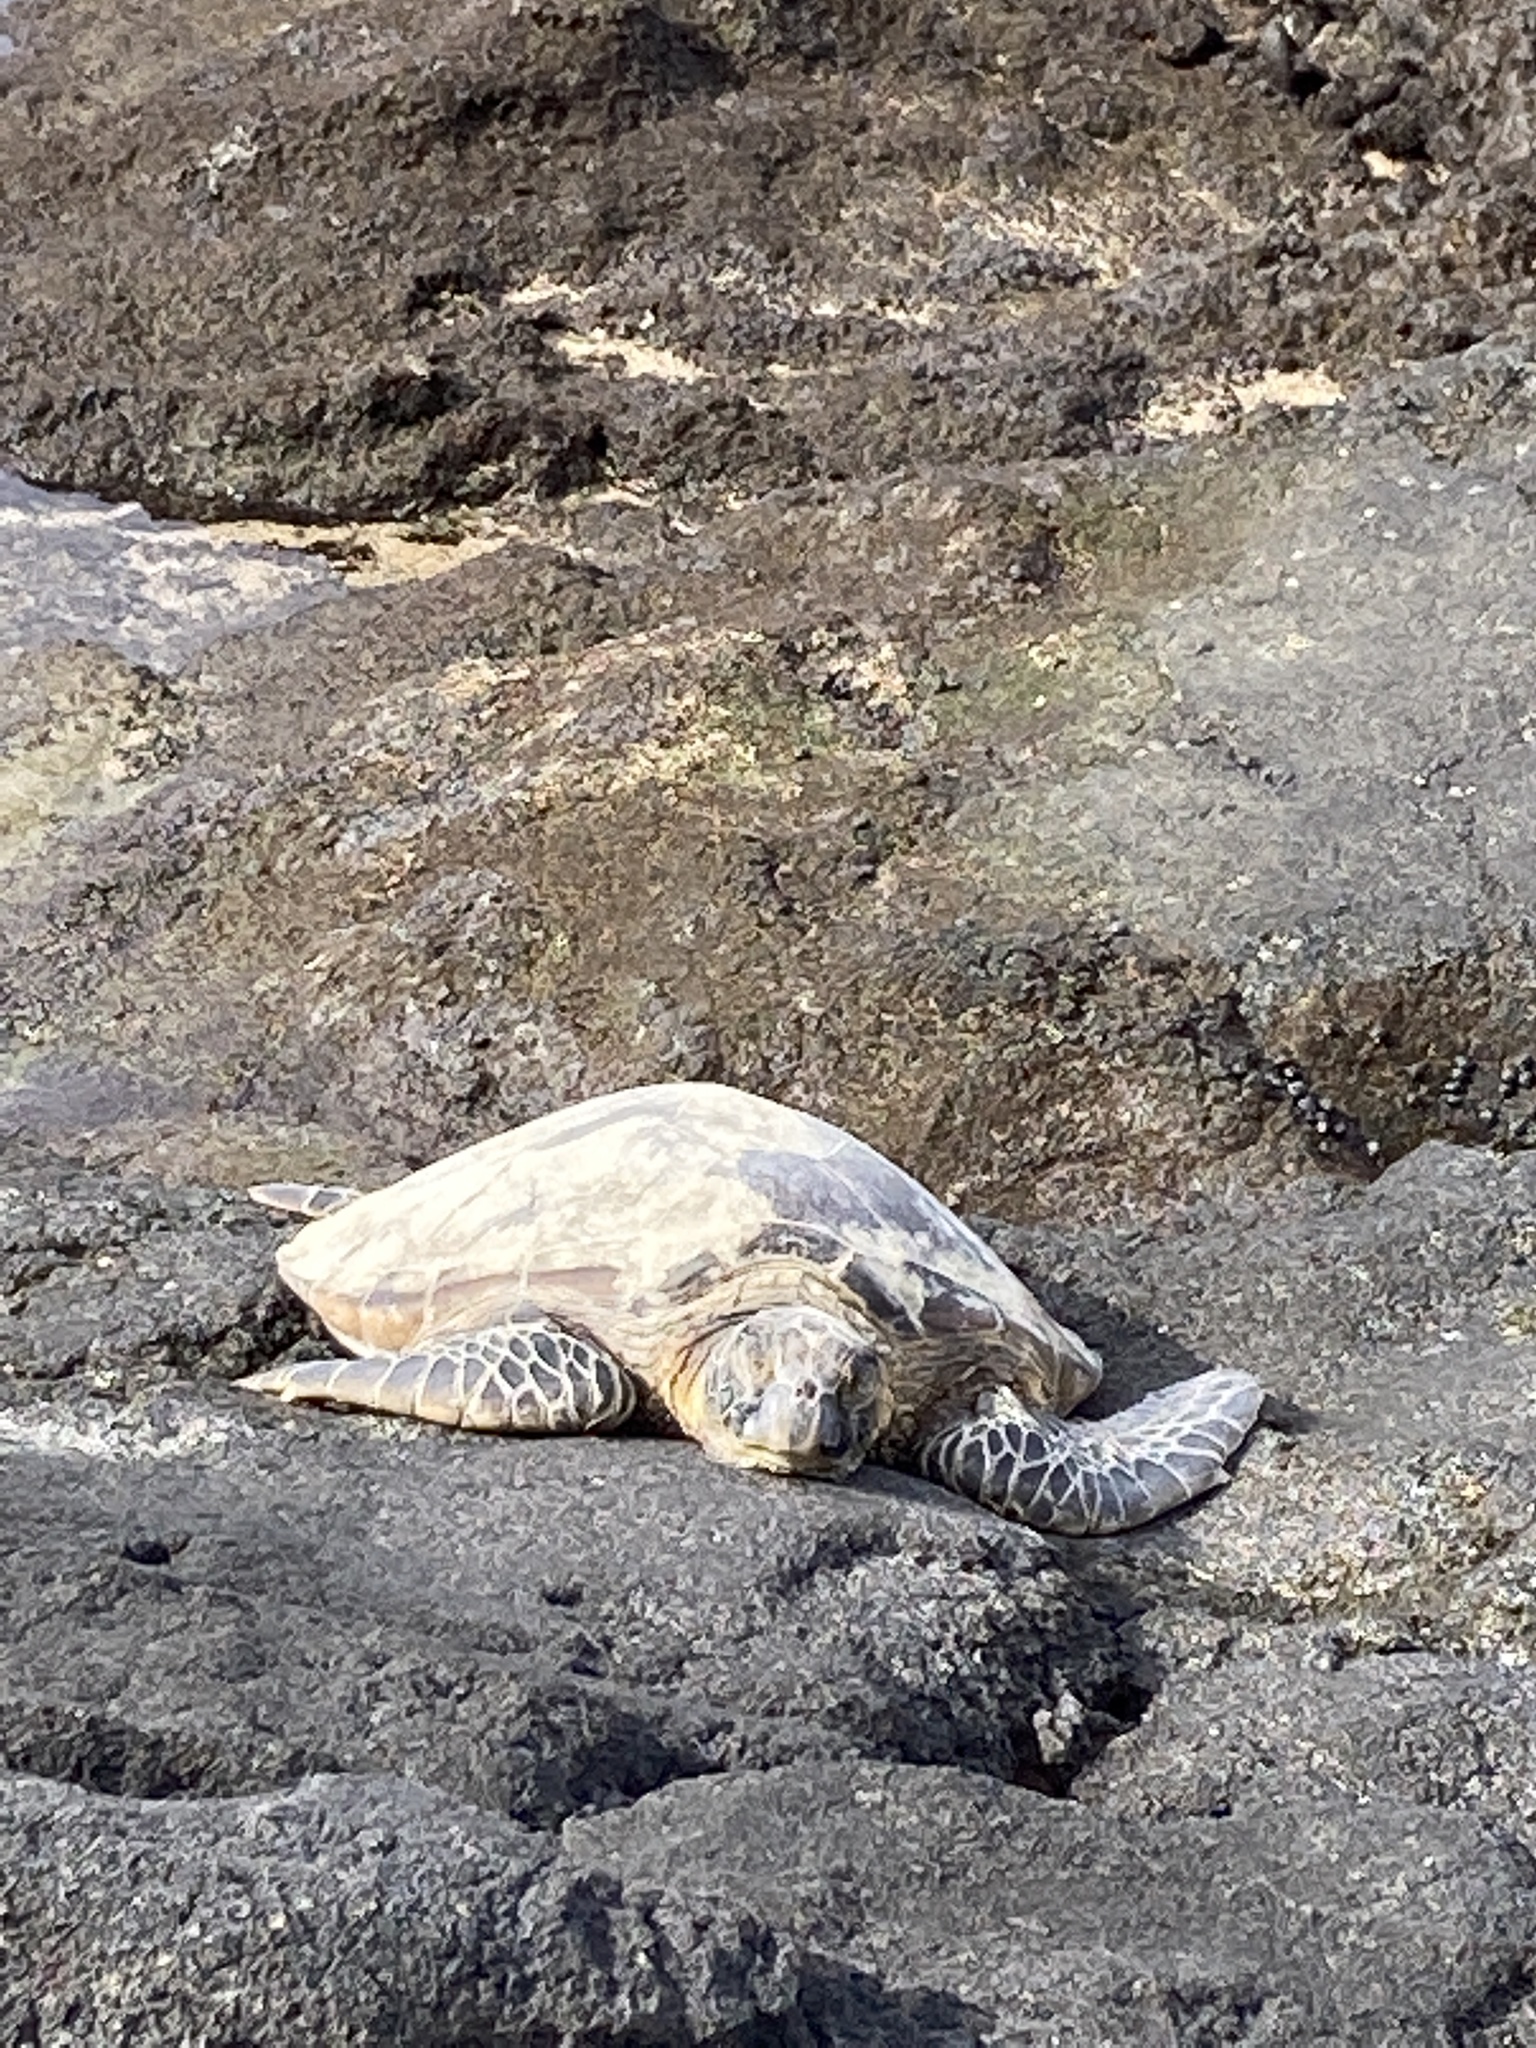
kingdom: Animalia
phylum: Chordata
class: Testudines
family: Cheloniidae
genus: Chelonia
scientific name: Chelonia mydas
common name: Green turtle
